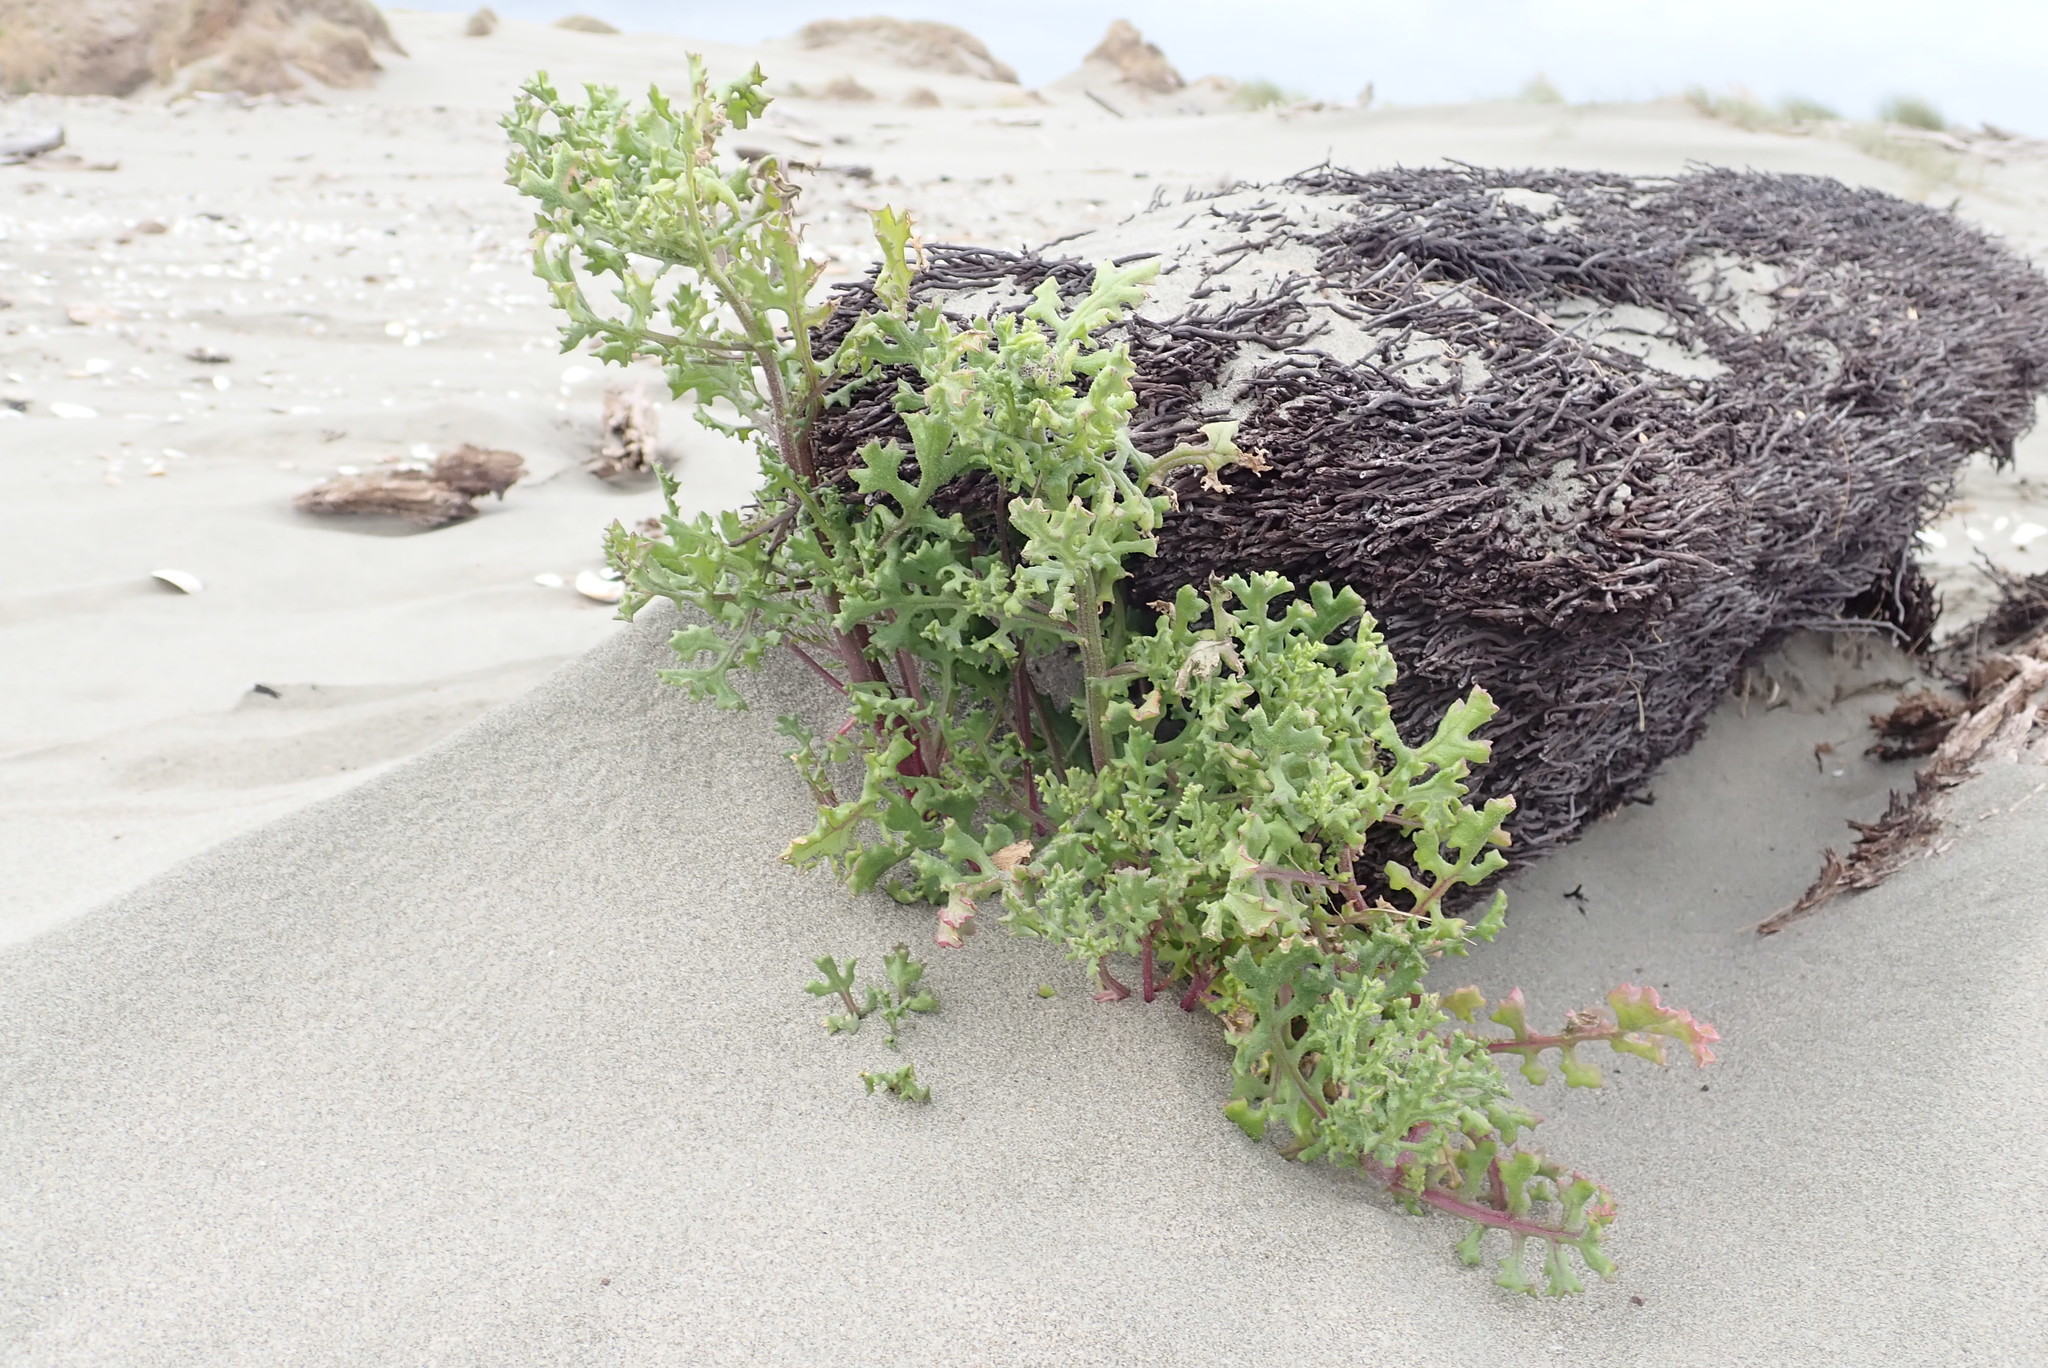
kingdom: Plantae
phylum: Tracheophyta
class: Magnoliopsida
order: Asterales
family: Asteraceae
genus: Senecio
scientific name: Senecio elegans
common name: Purple groundsel
